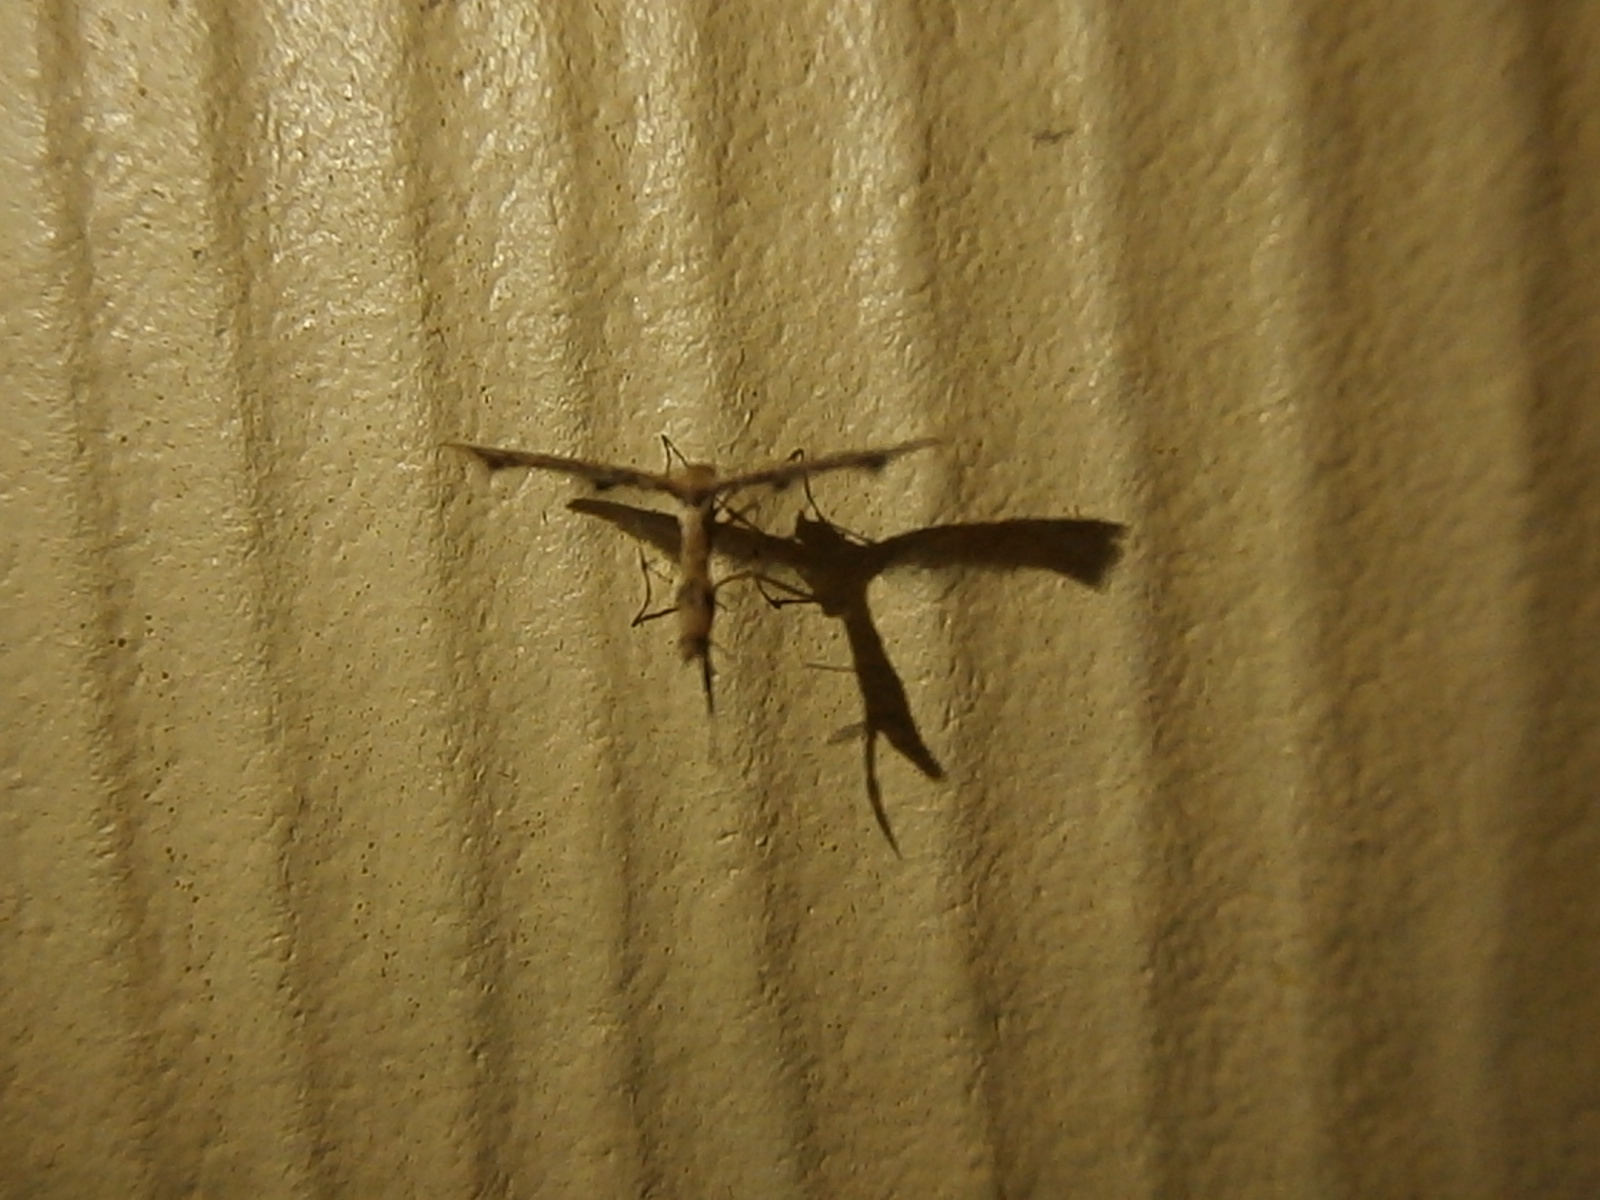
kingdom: Animalia
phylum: Arthropoda
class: Insecta
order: Lepidoptera
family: Pterophoridae
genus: Adaina
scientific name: Adaina ambrosiae
